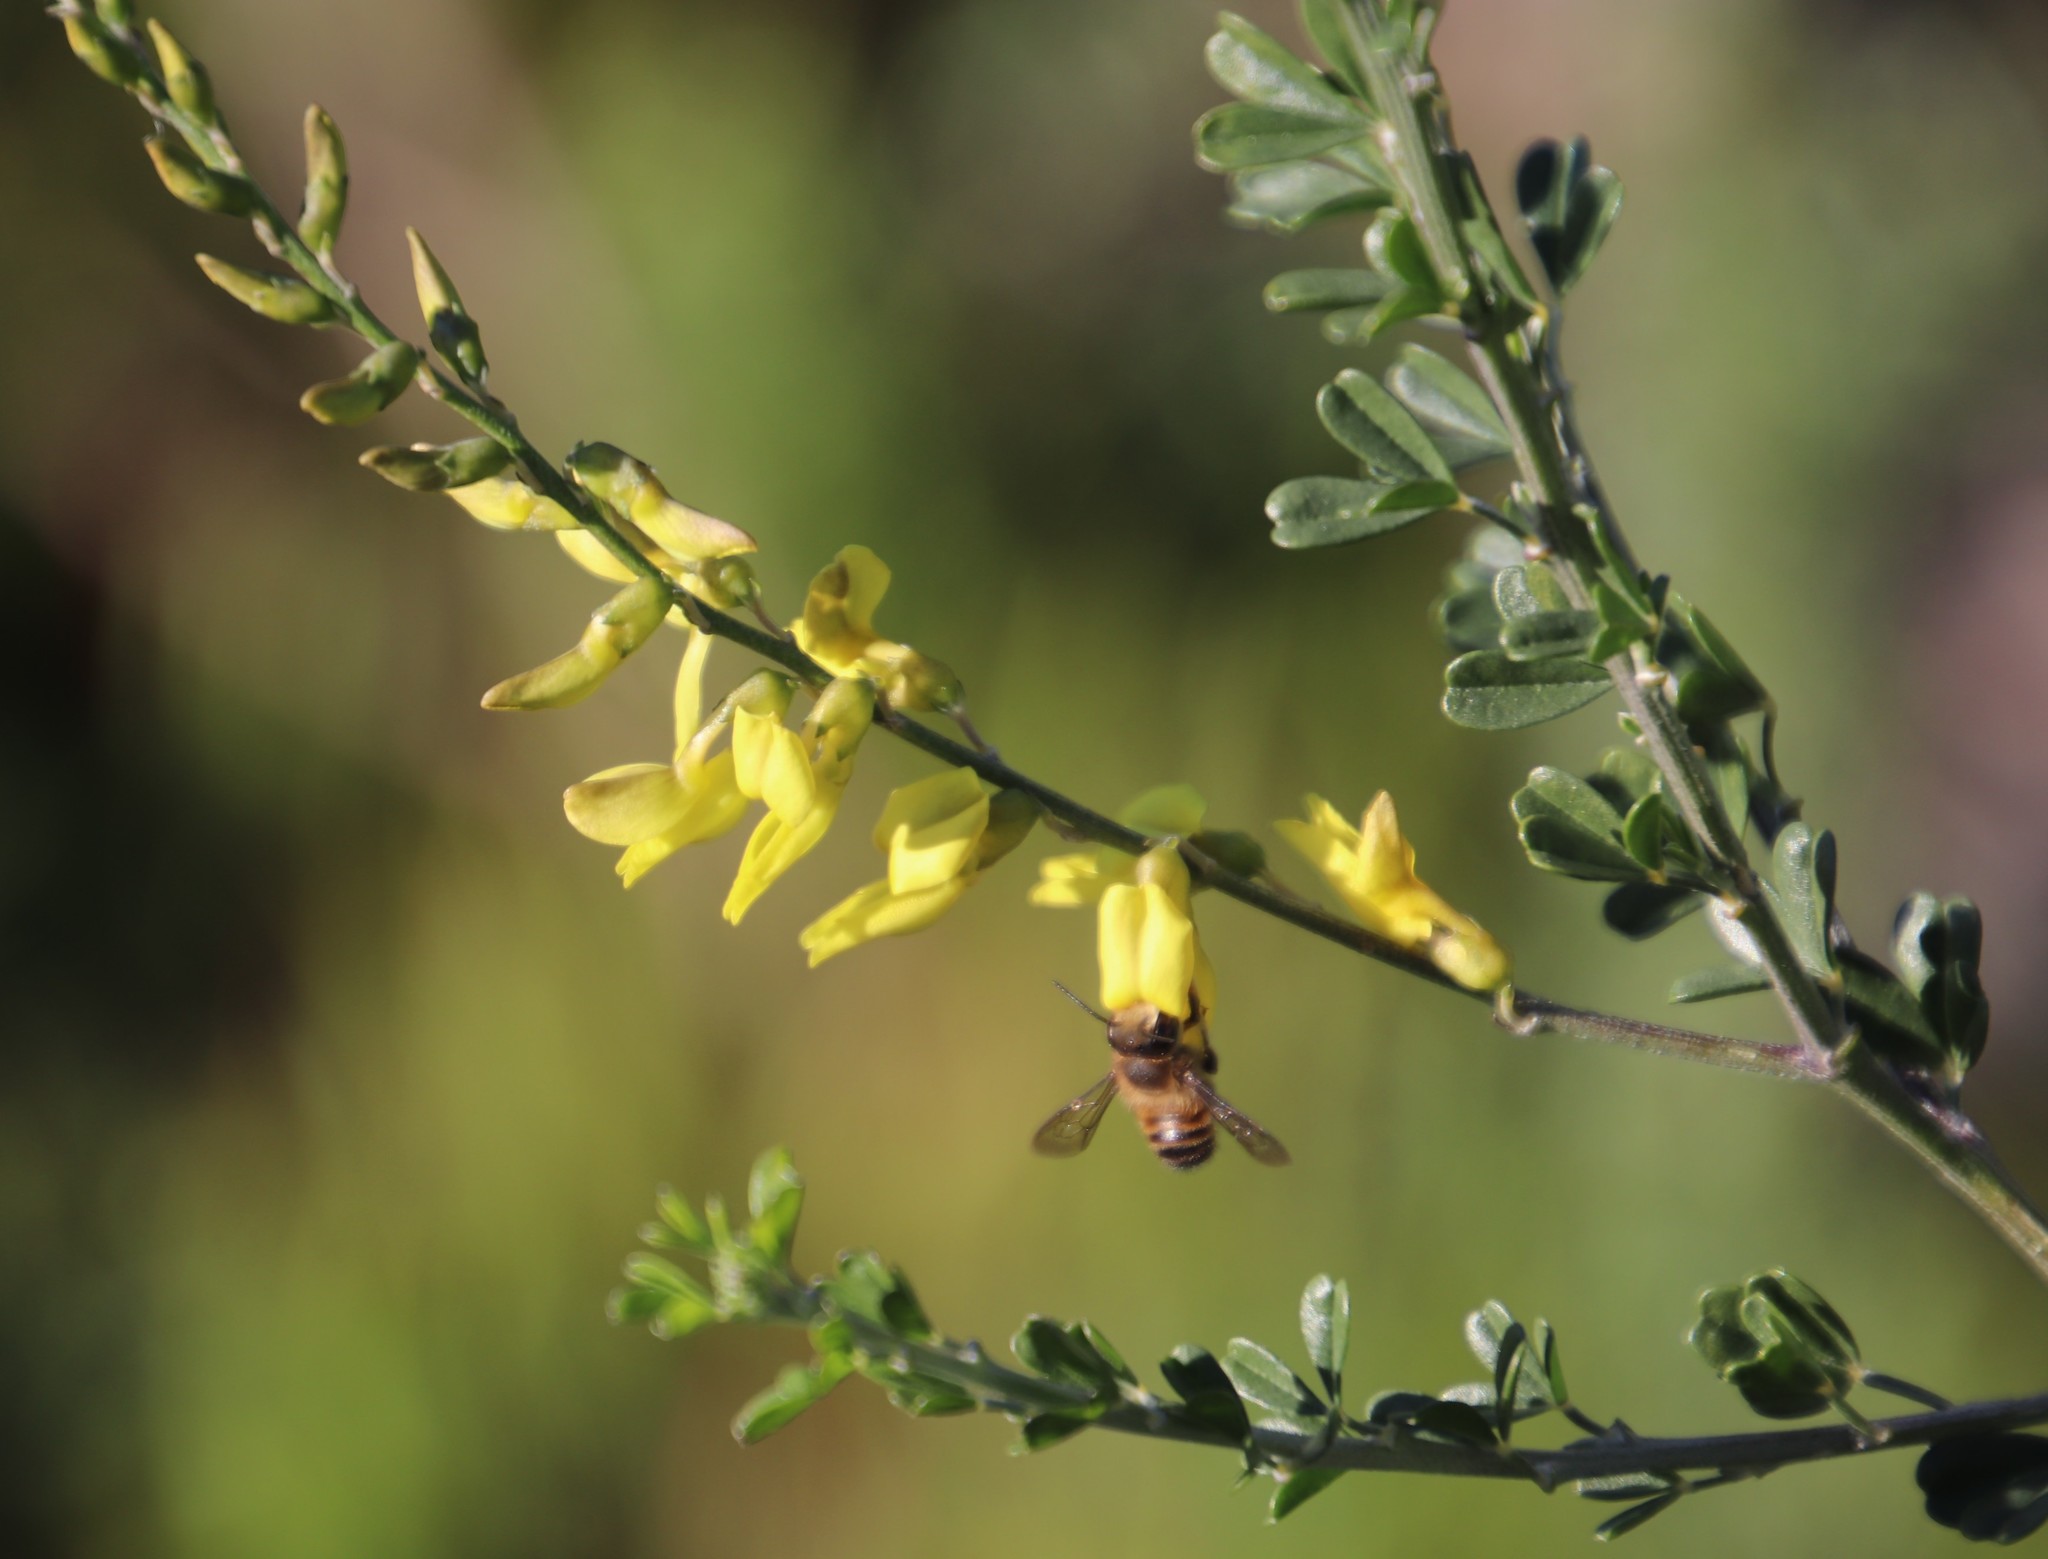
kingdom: Plantae
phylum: Tracheophyta
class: Magnoliopsida
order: Fabales
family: Fabaceae
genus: Wiborgia
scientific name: Wiborgia obcordata
